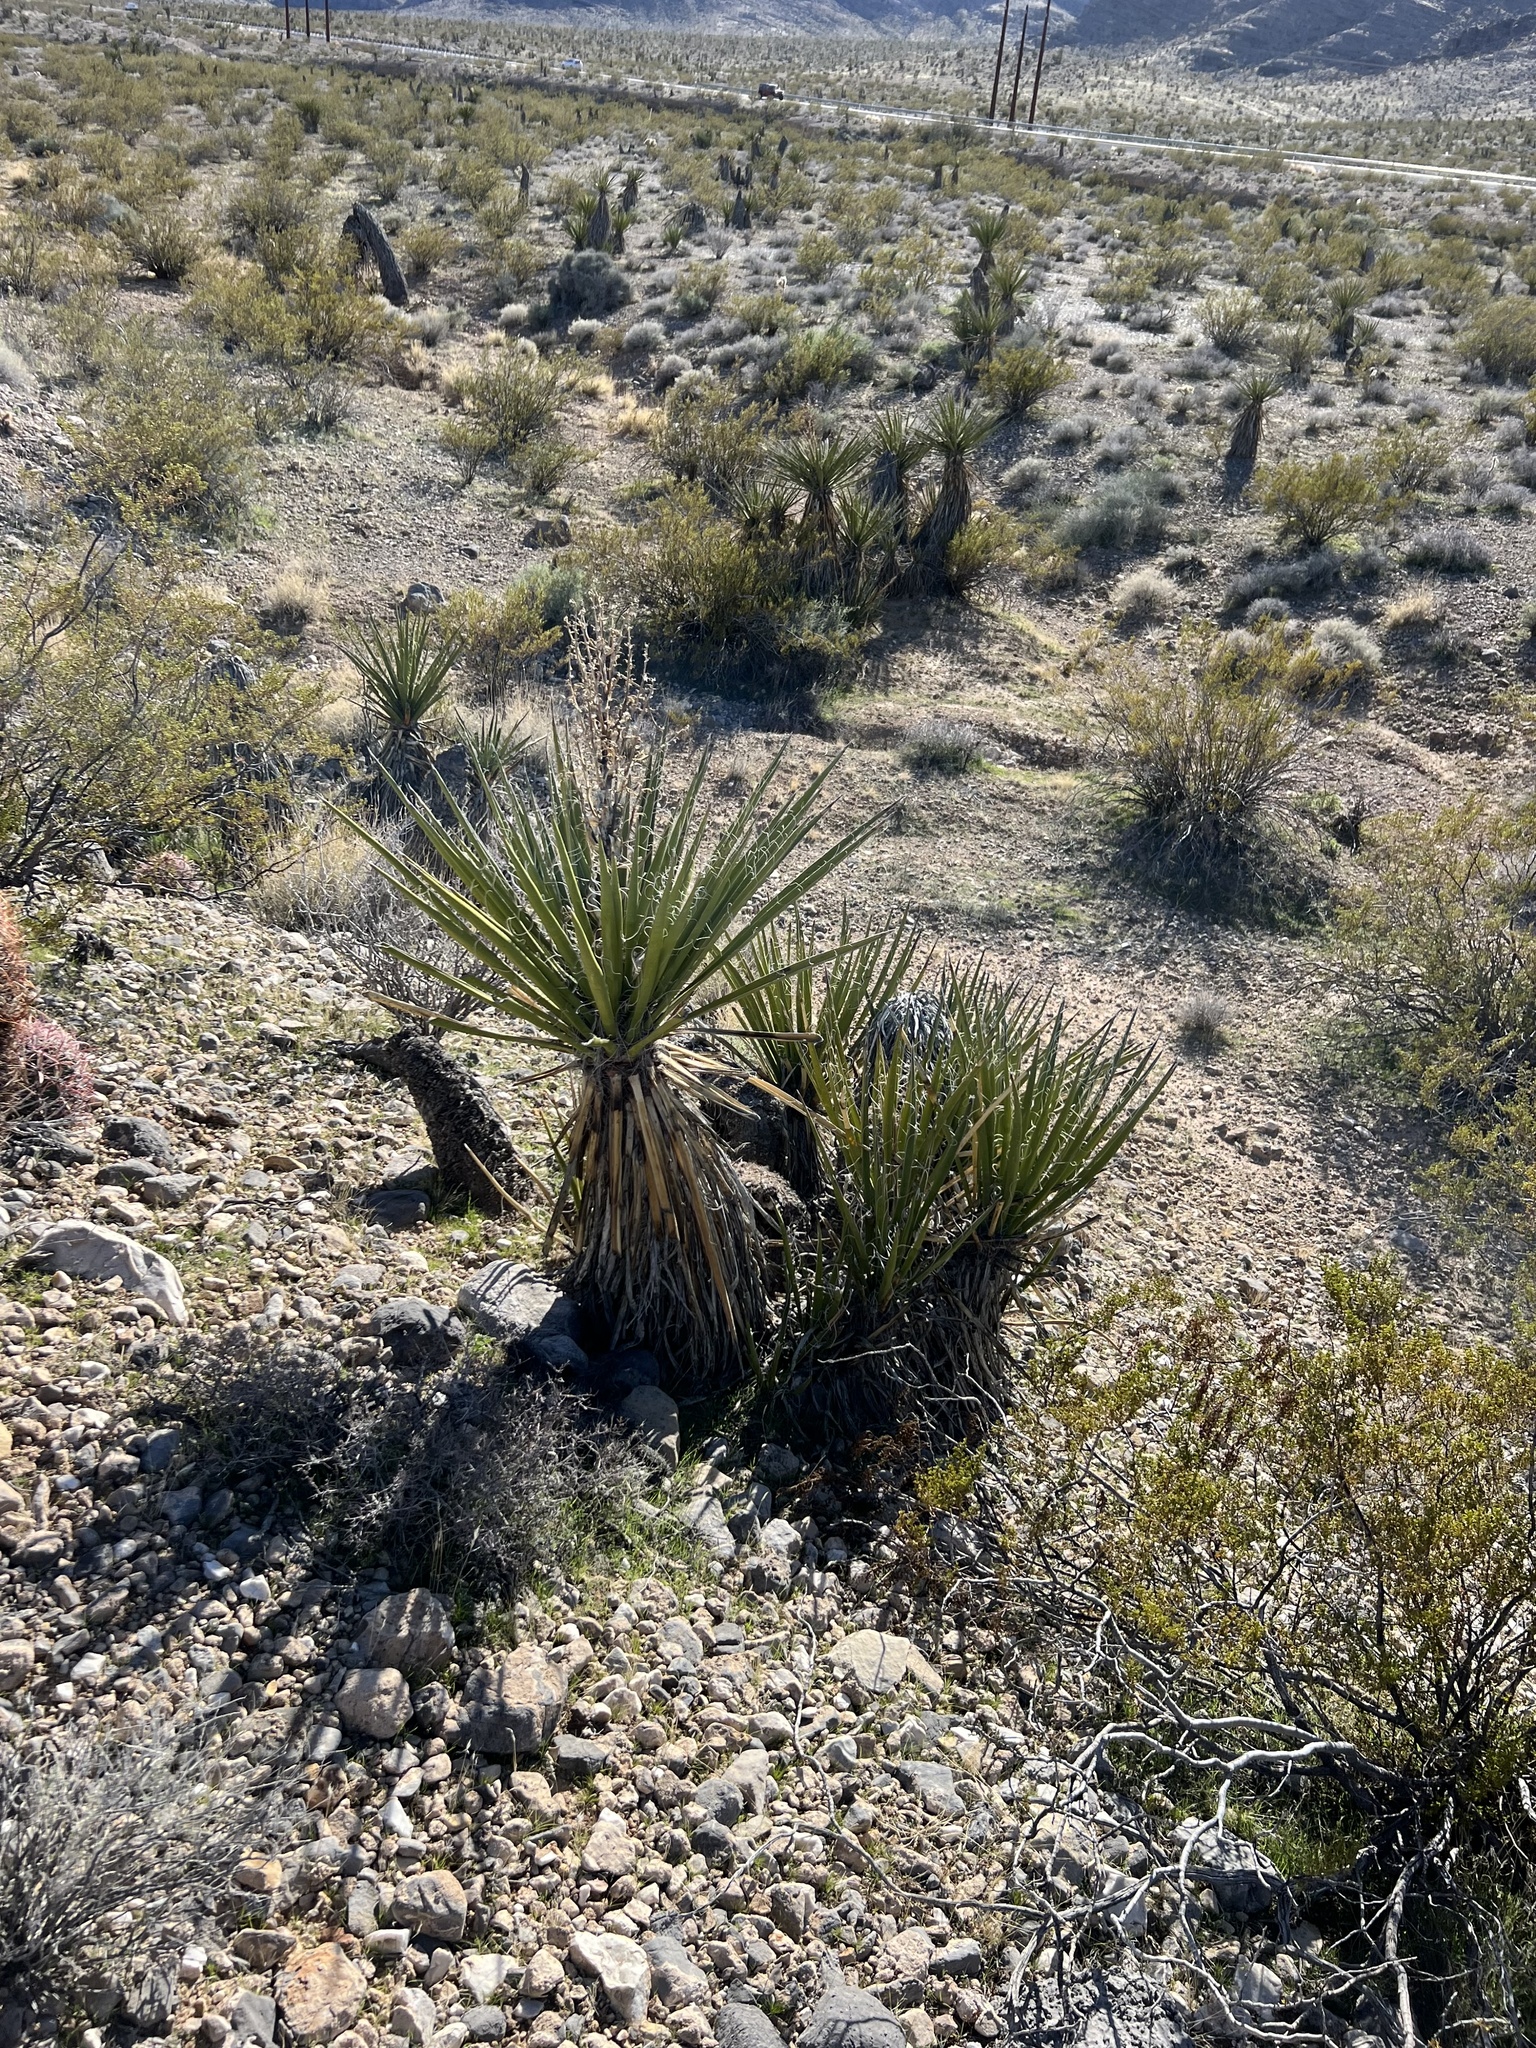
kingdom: Plantae
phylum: Tracheophyta
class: Liliopsida
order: Asparagales
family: Asparagaceae
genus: Yucca
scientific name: Yucca schidigera
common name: Mojave yucca
